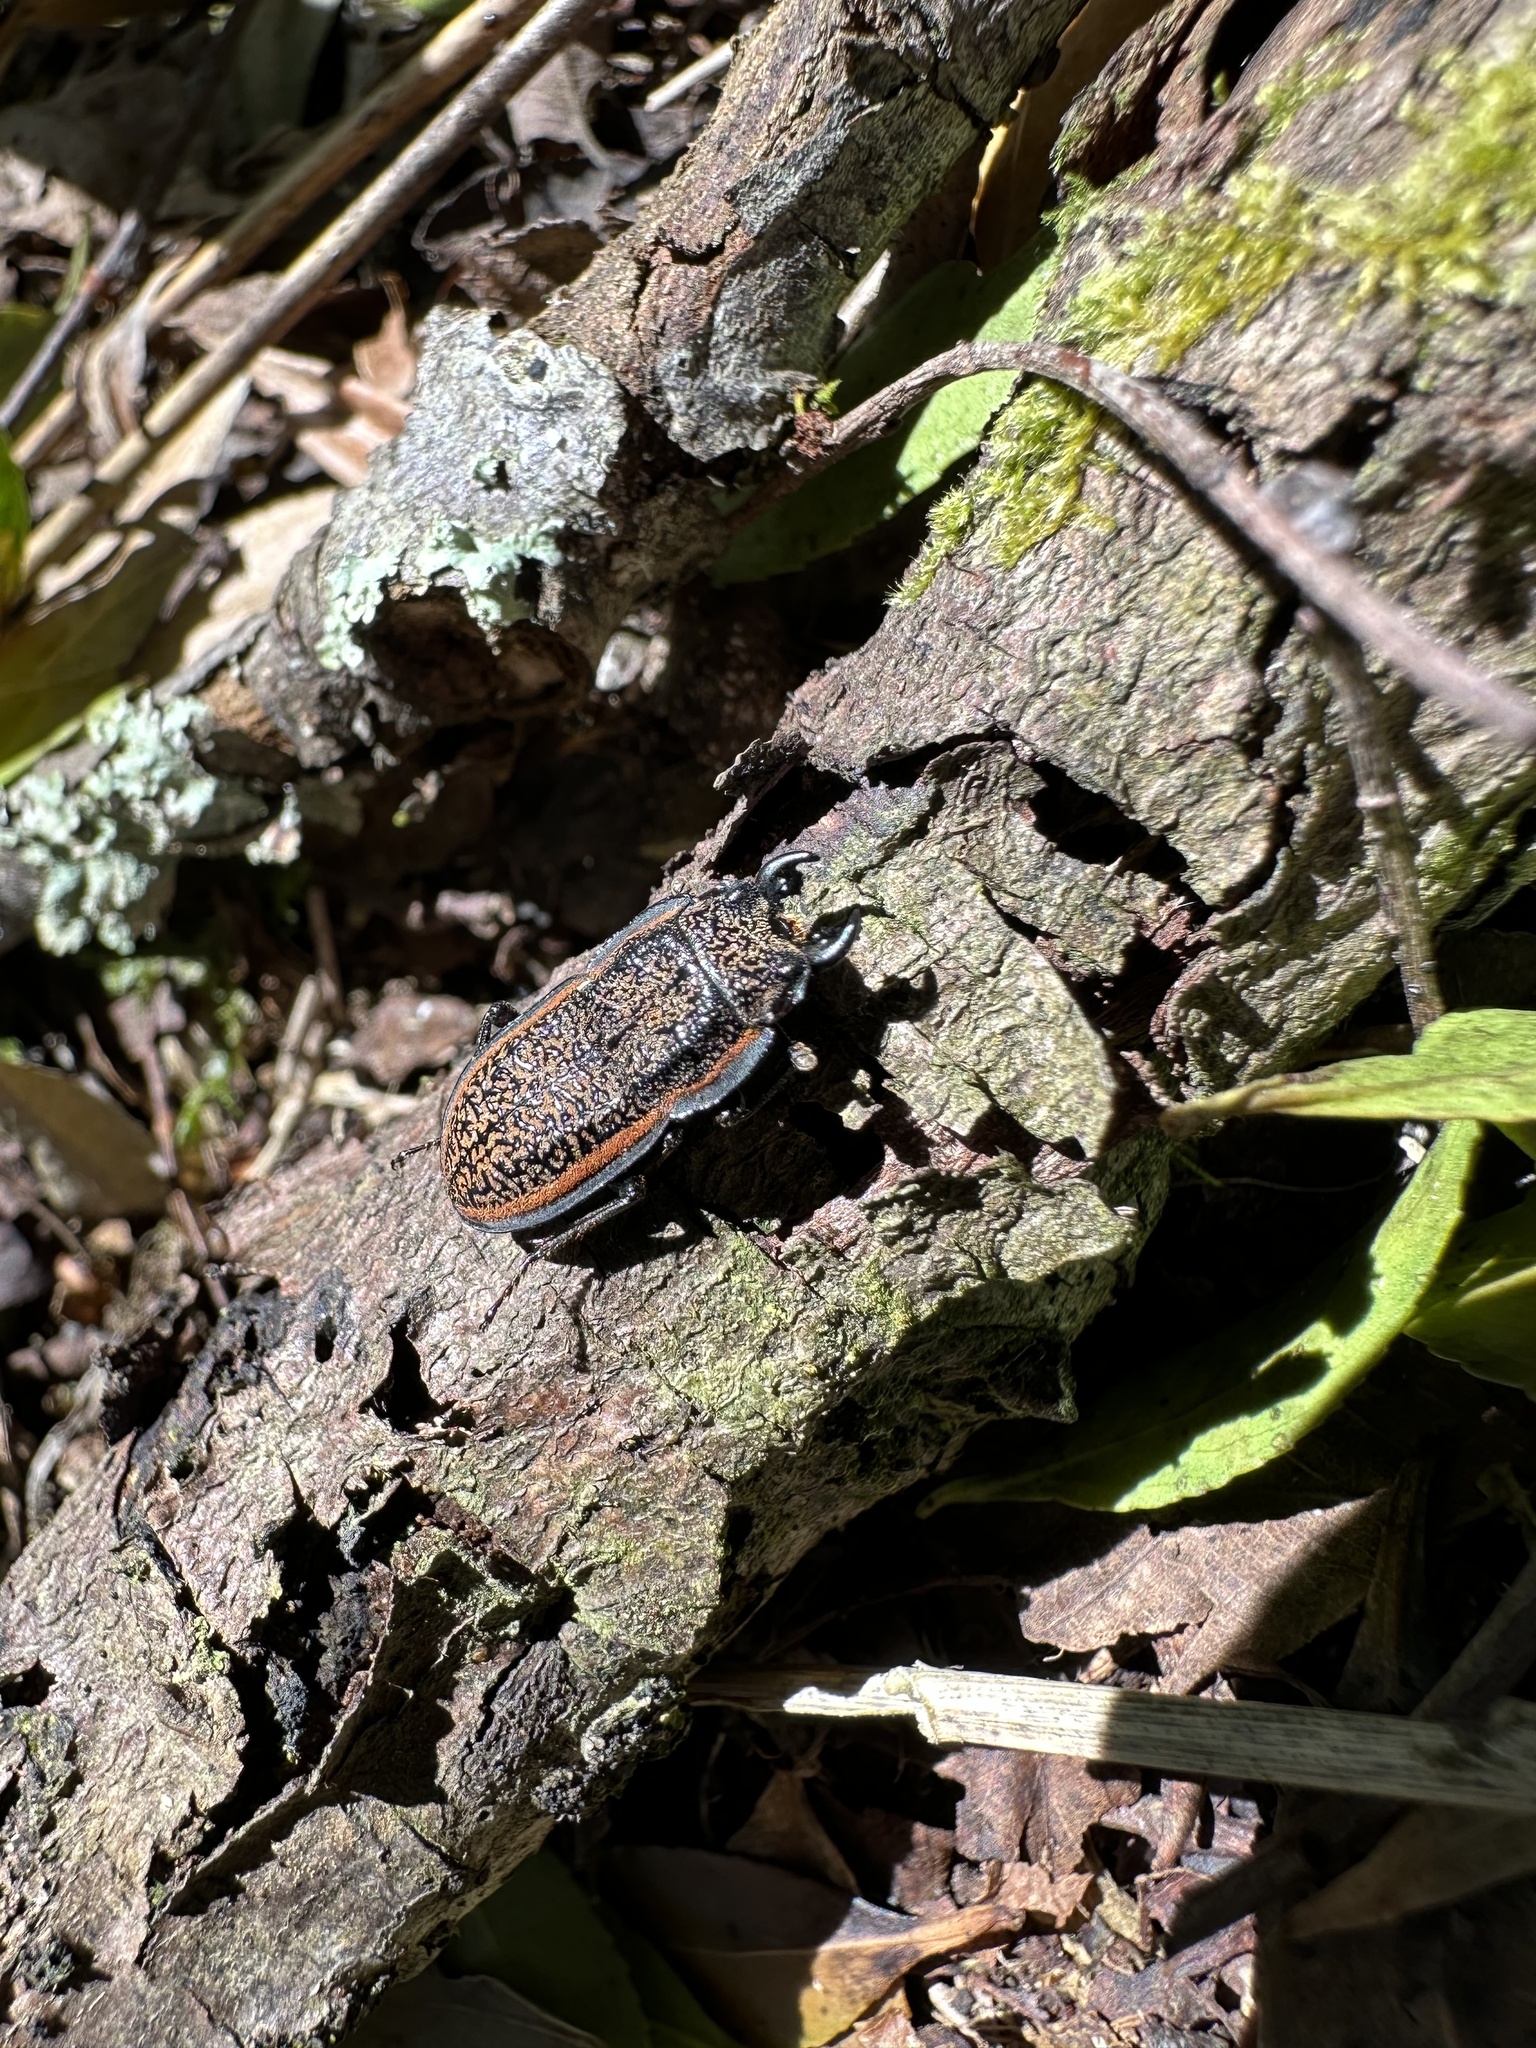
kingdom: Animalia
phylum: Arthropoda
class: Insecta
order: Coleoptera
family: Lucanidae
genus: Erichius
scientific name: Erichius caelatus
